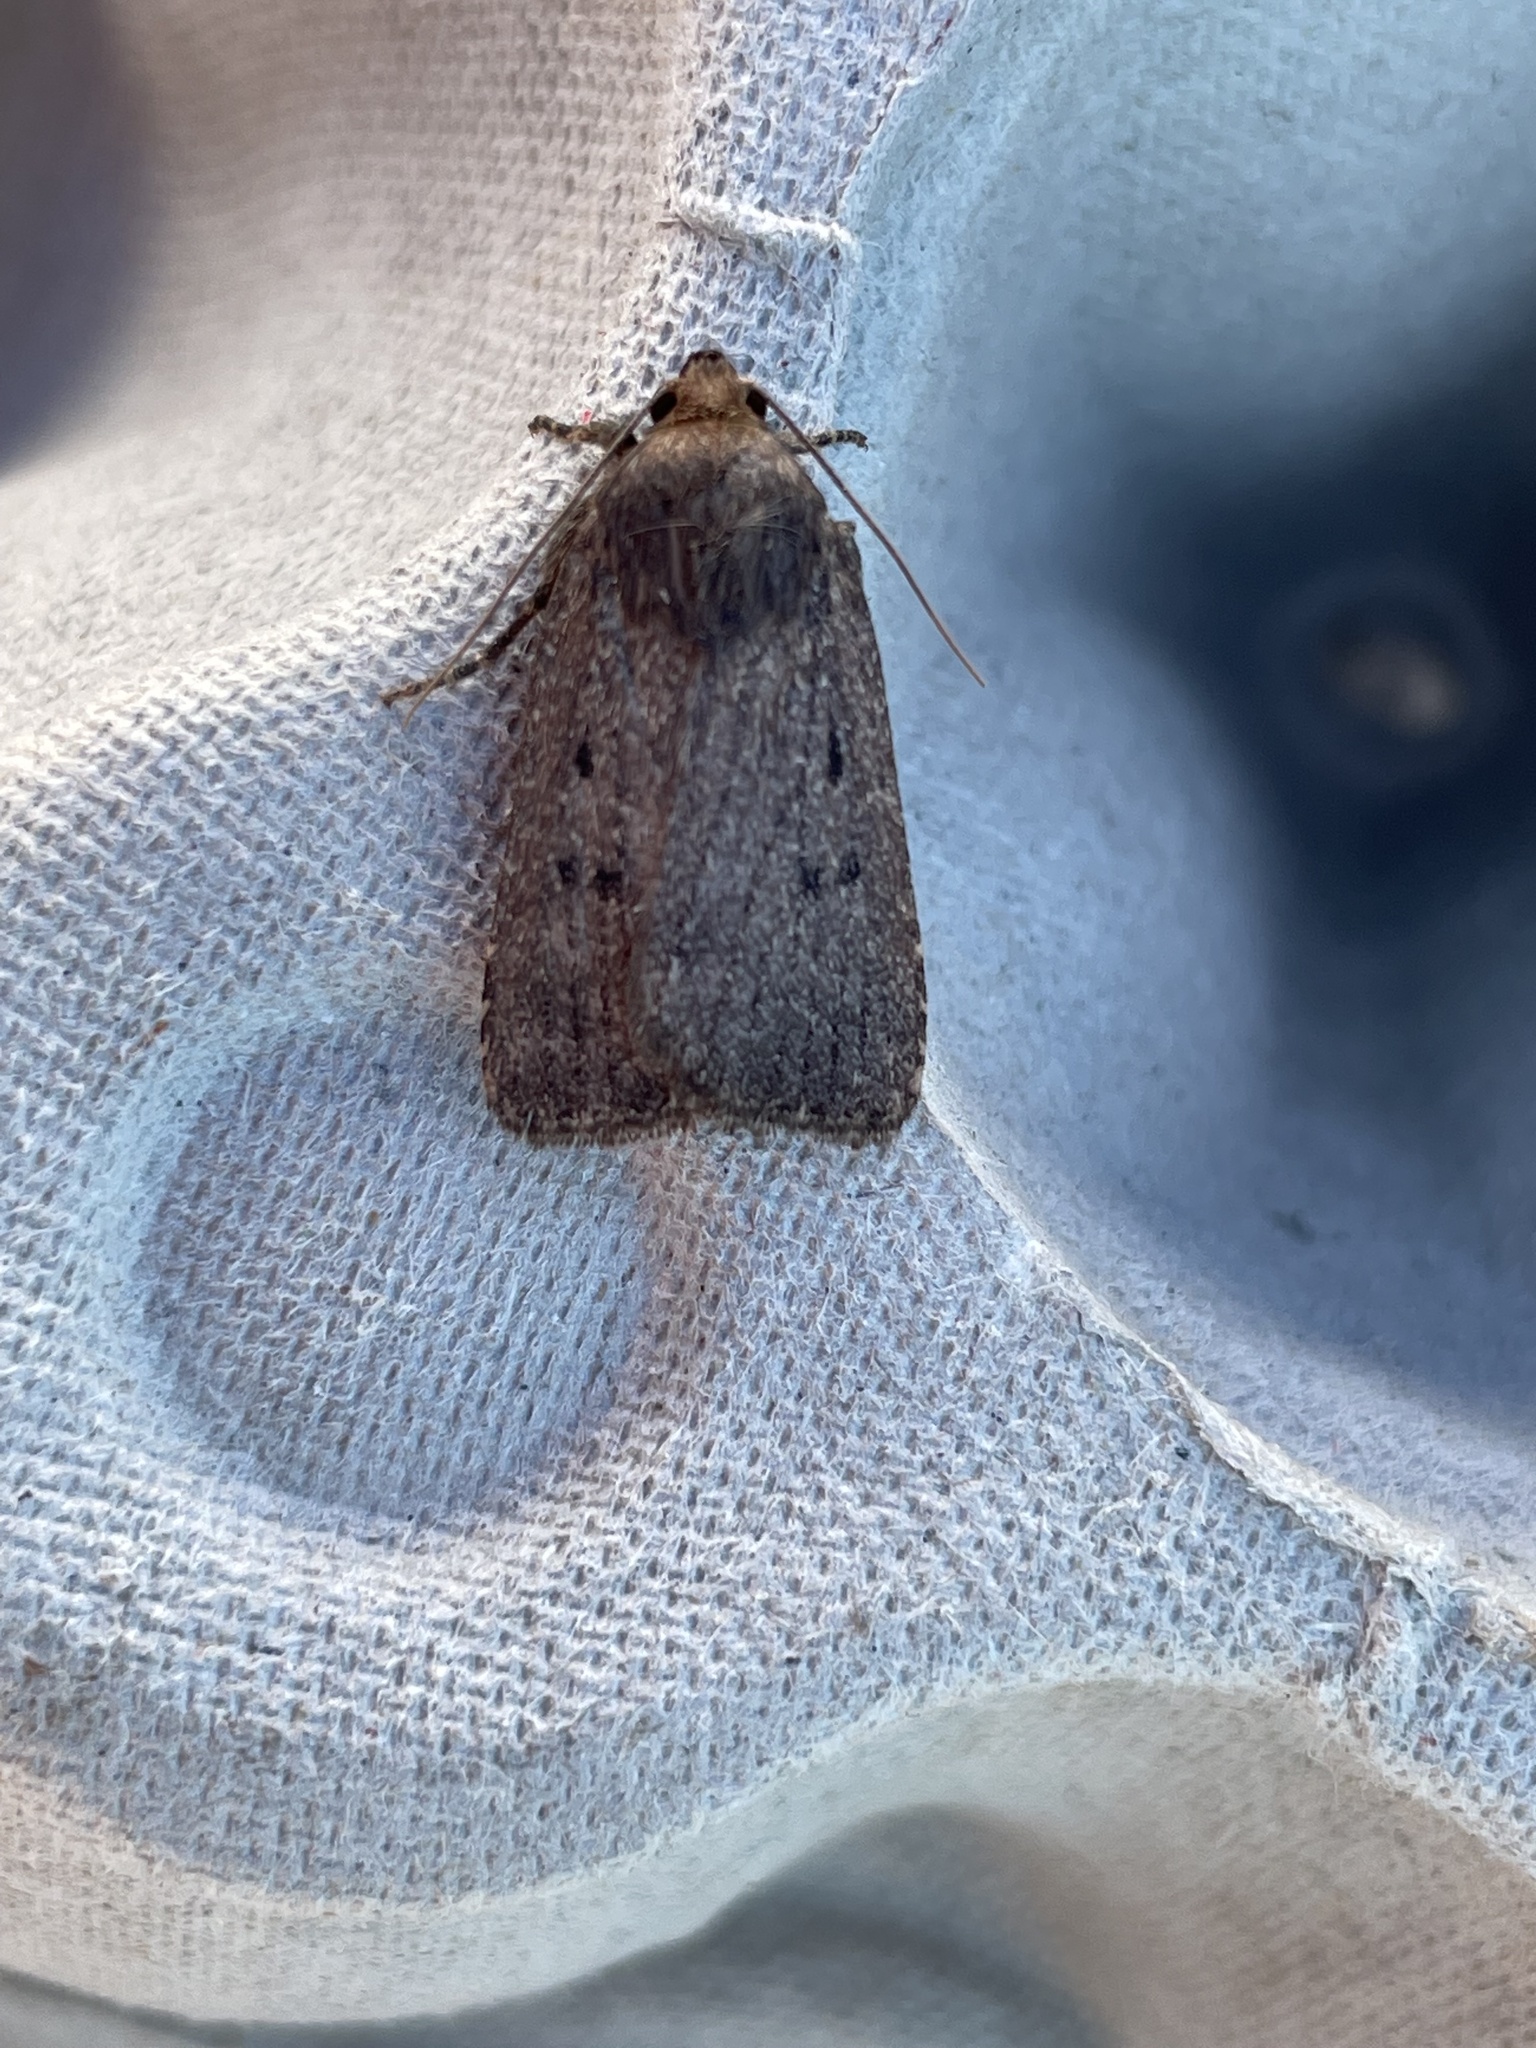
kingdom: Animalia
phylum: Arthropoda
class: Insecta
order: Lepidoptera
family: Noctuidae
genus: Amphipyra
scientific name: Amphipyra tragopoginis
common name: Mouse moth
